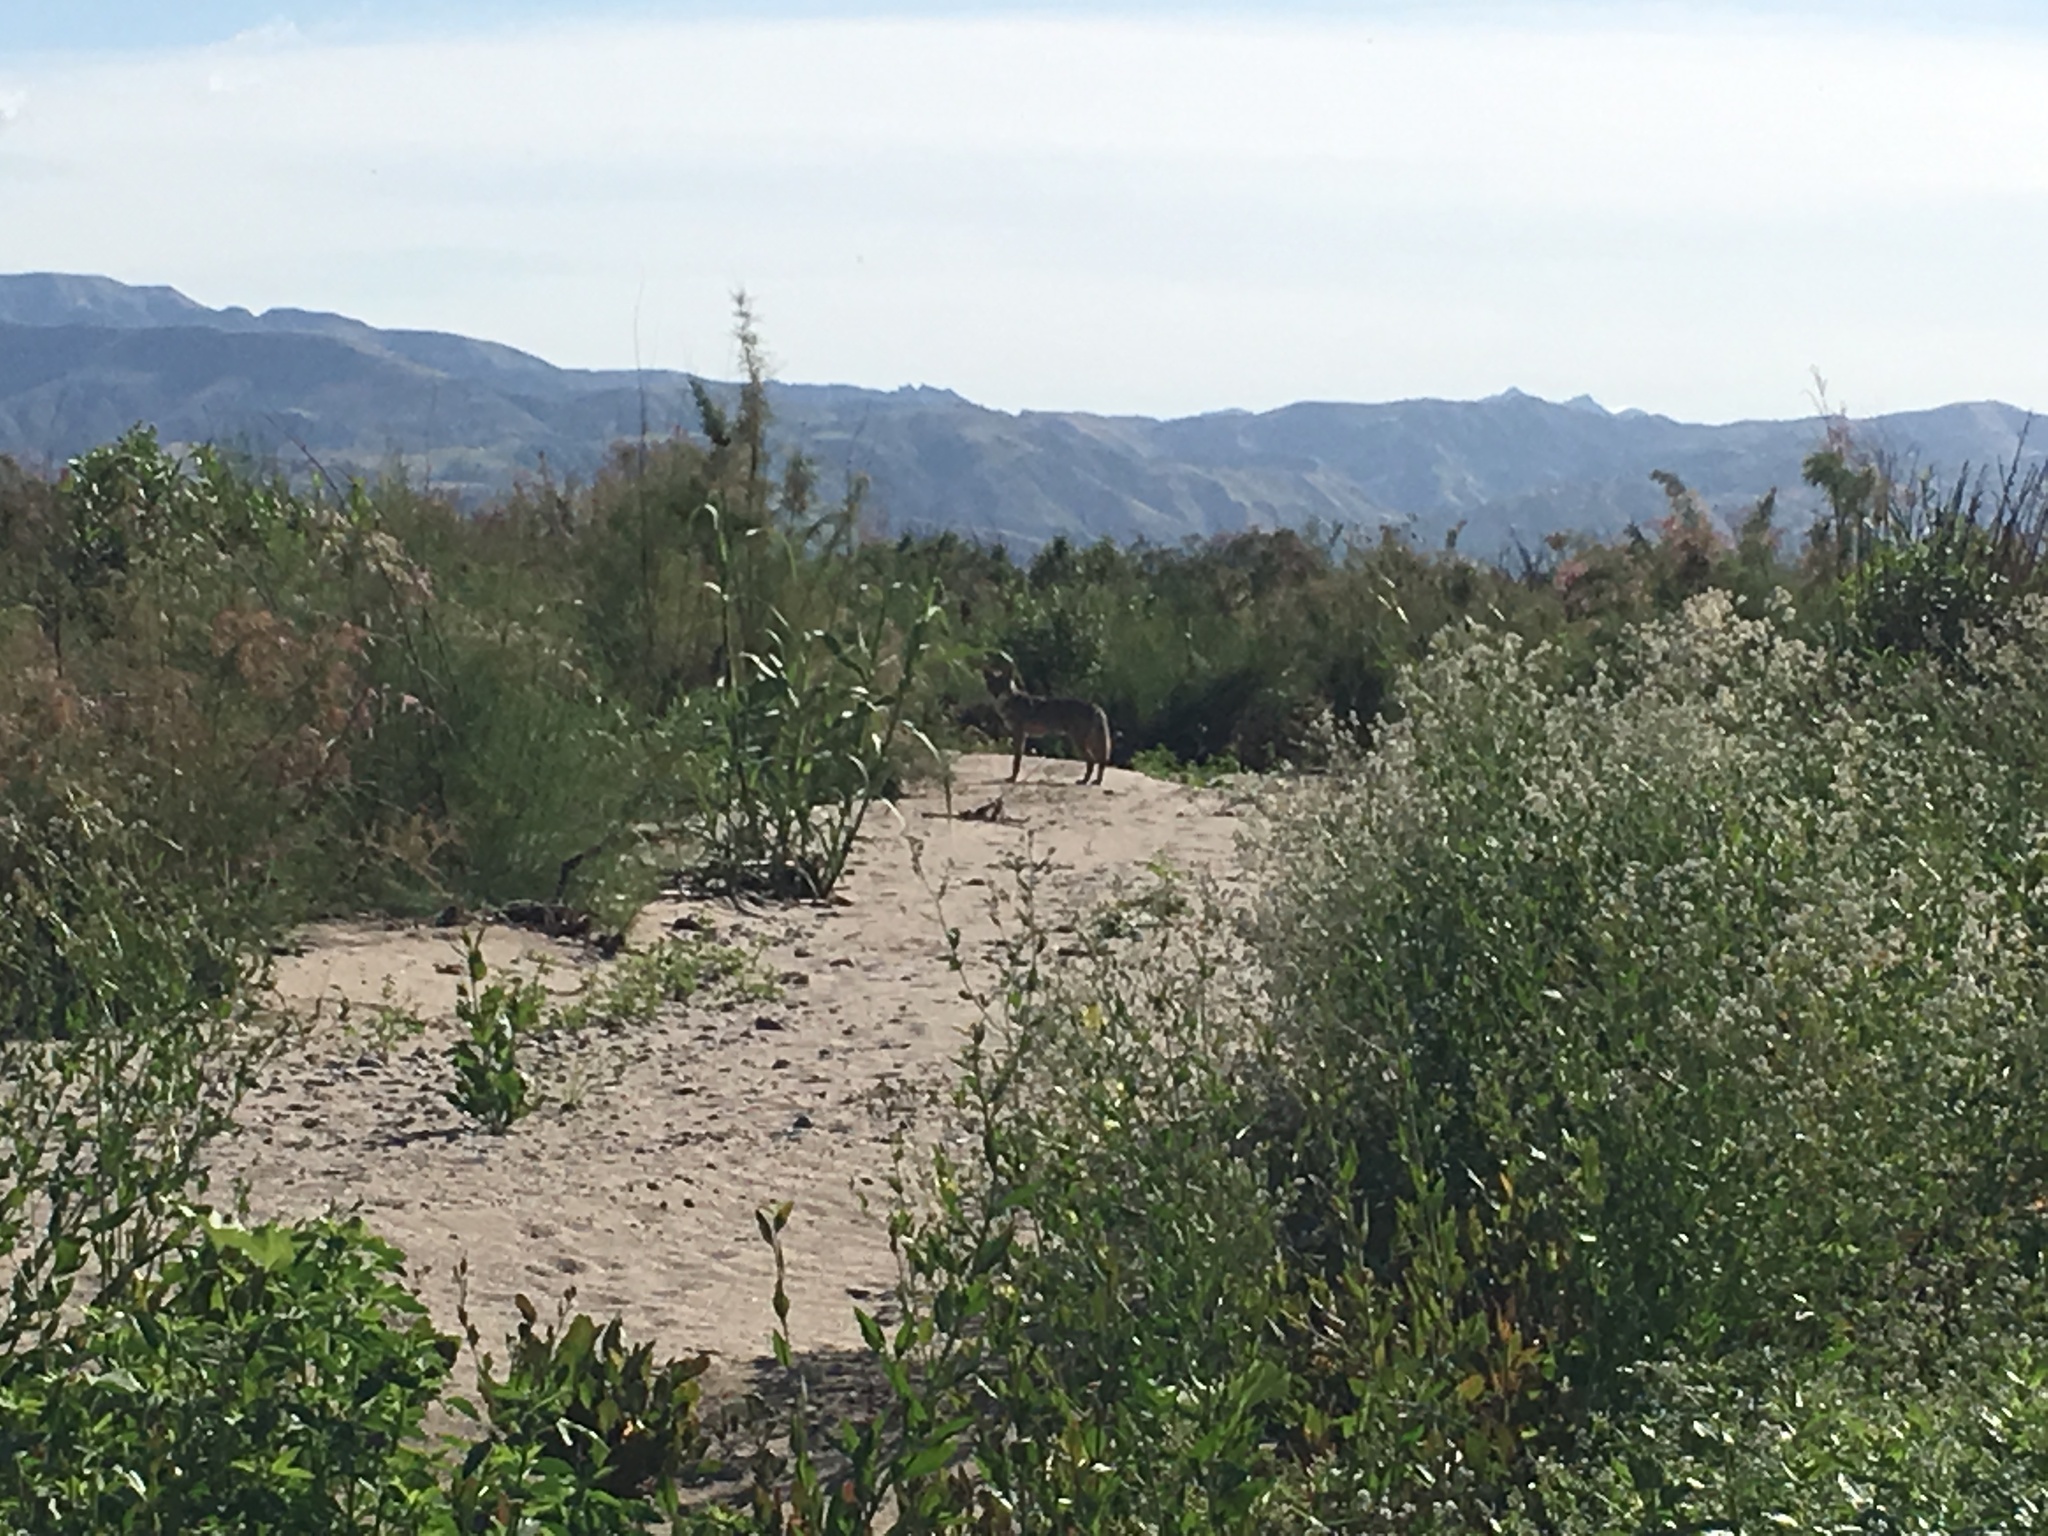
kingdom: Animalia
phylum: Chordata
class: Mammalia
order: Carnivora
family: Canidae
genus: Canis
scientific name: Canis latrans
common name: Coyote
